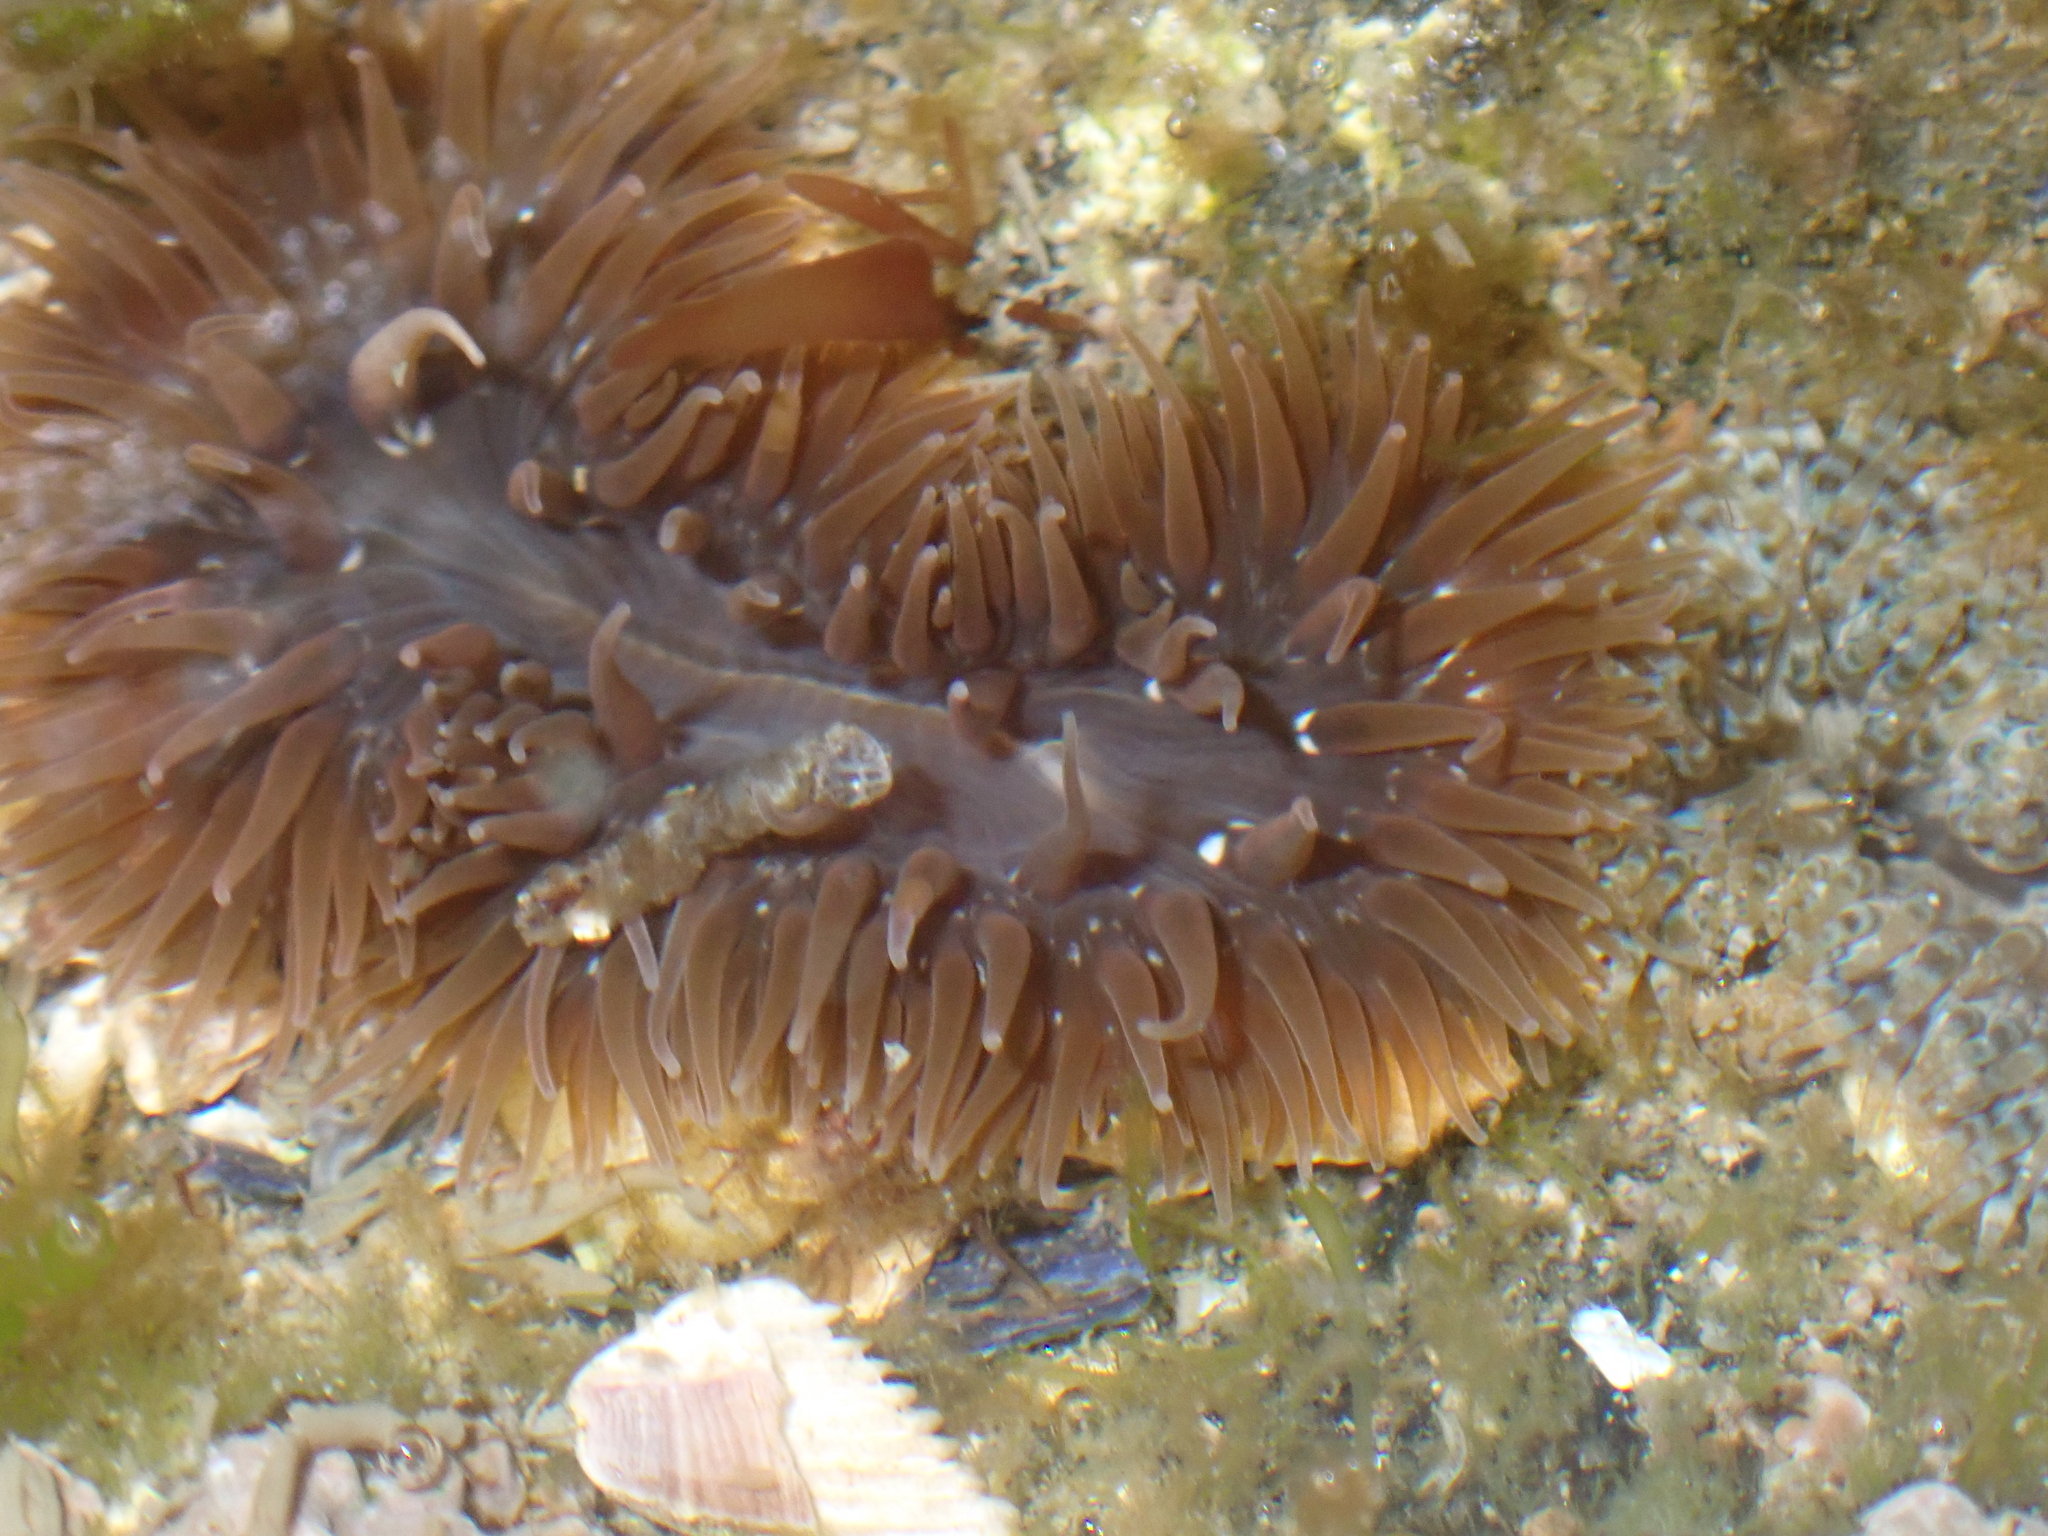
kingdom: Animalia
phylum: Cnidaria
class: Anthozoa
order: Actiniaria
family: Sagartiidae
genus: Cereus
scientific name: Cereus pedunculatus
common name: Daisy anemone
